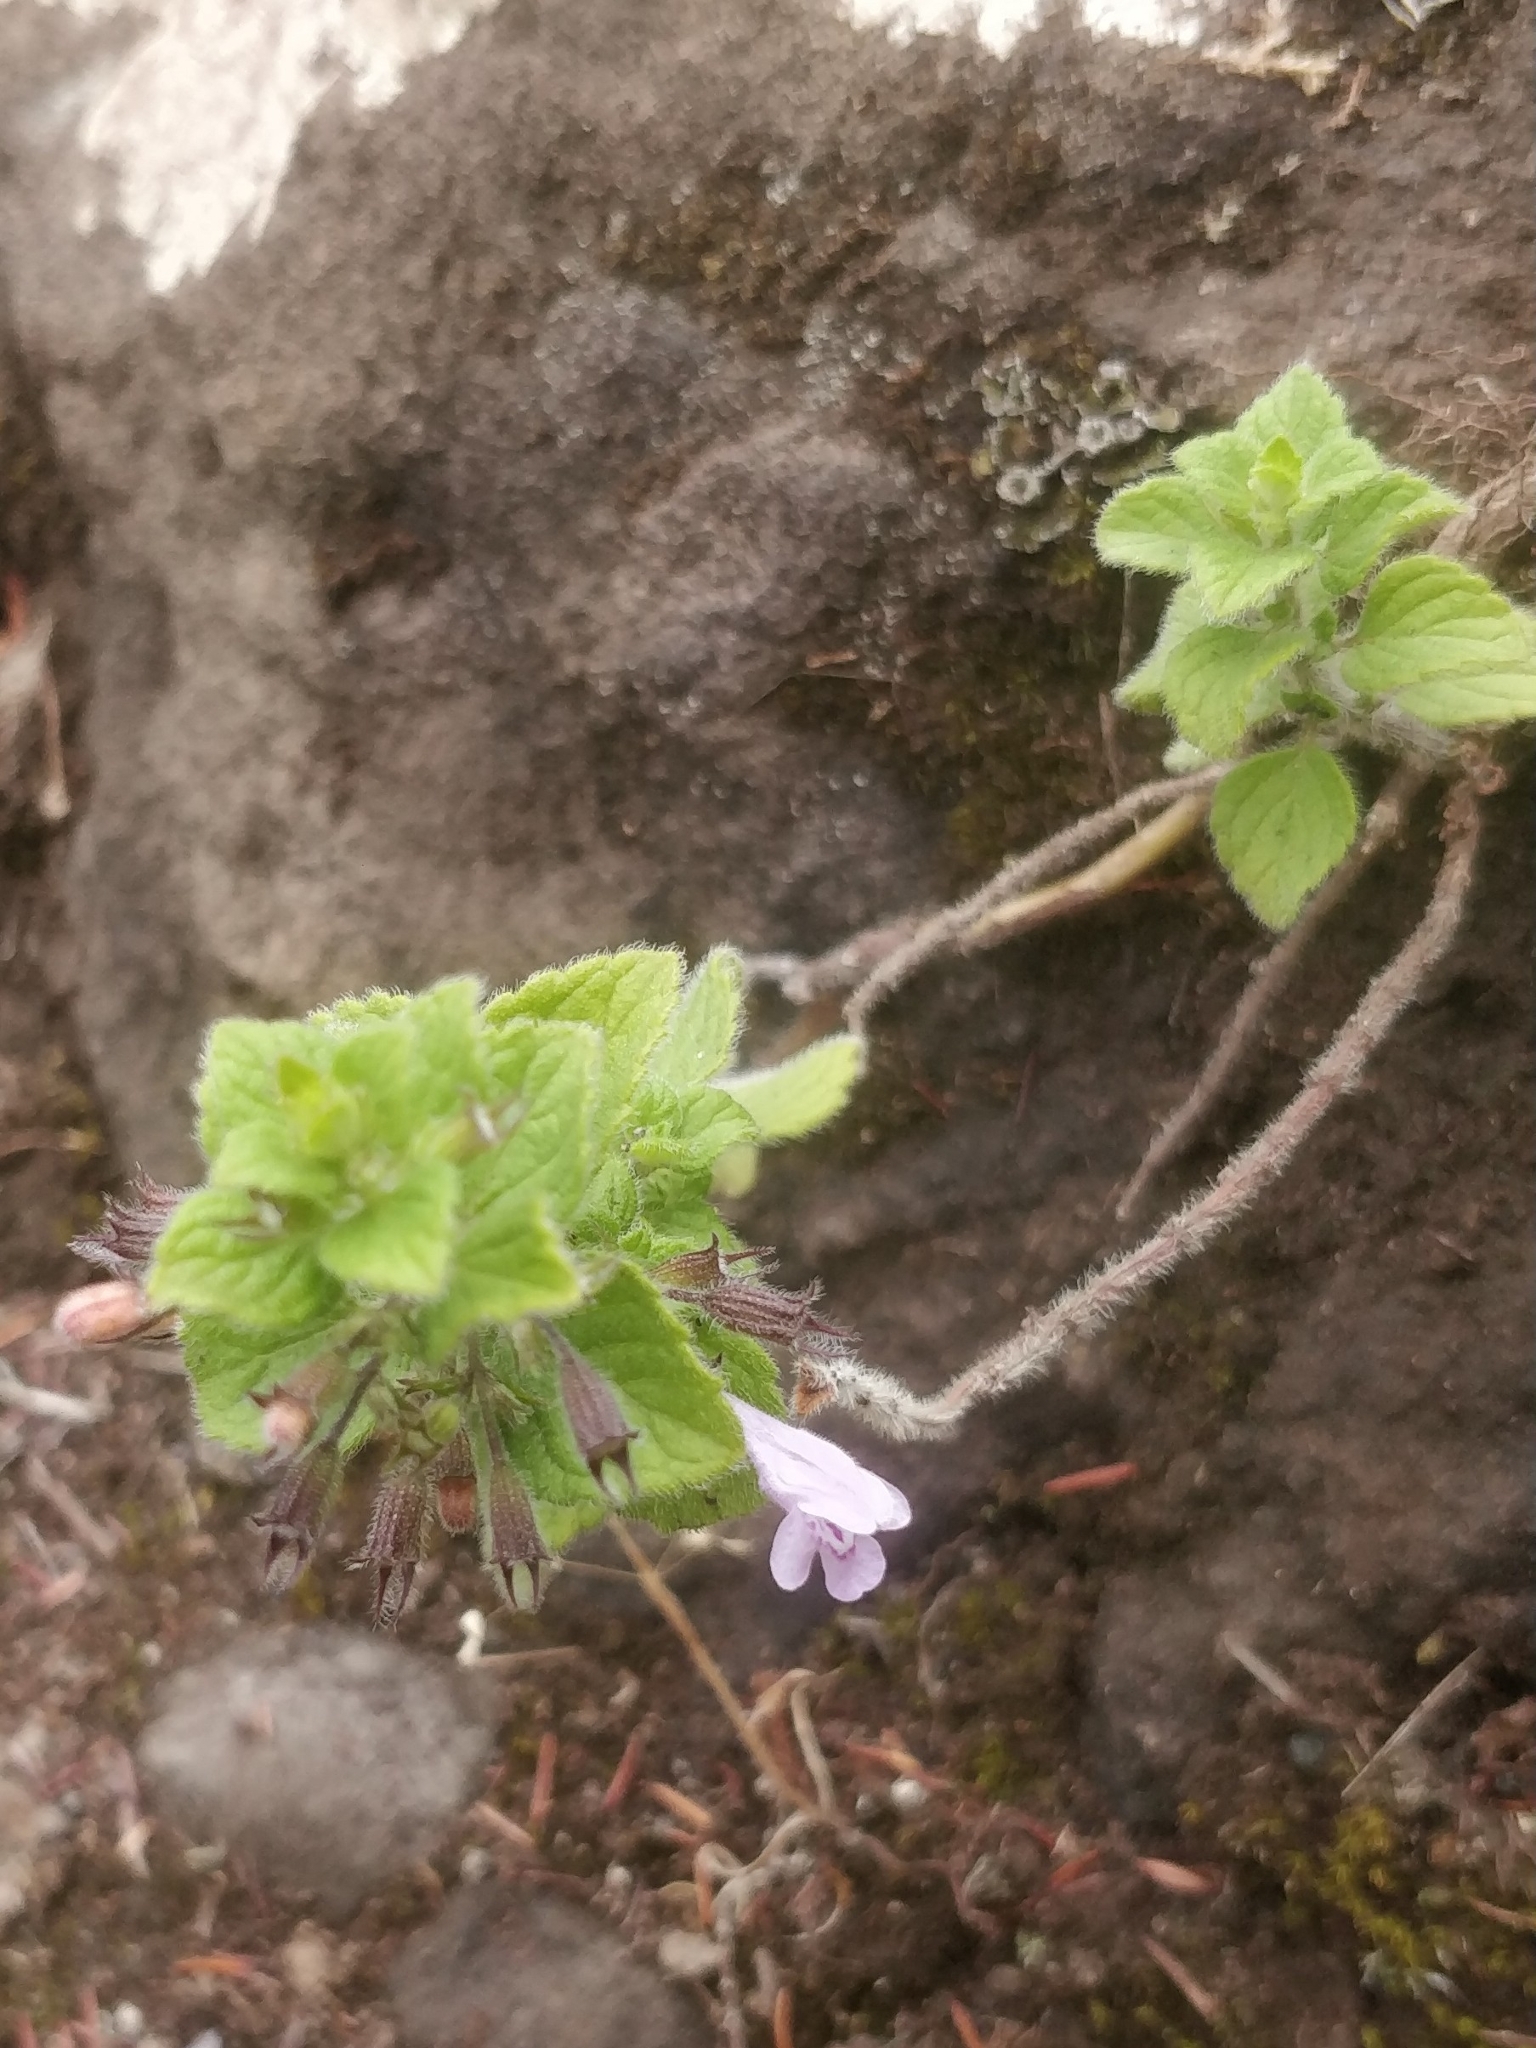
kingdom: Plantae
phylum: Tracheophyta
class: Magnoliopsida
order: Lamiales
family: Lamiaceae
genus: Clinopodium
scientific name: Clinopodium menthifolium
